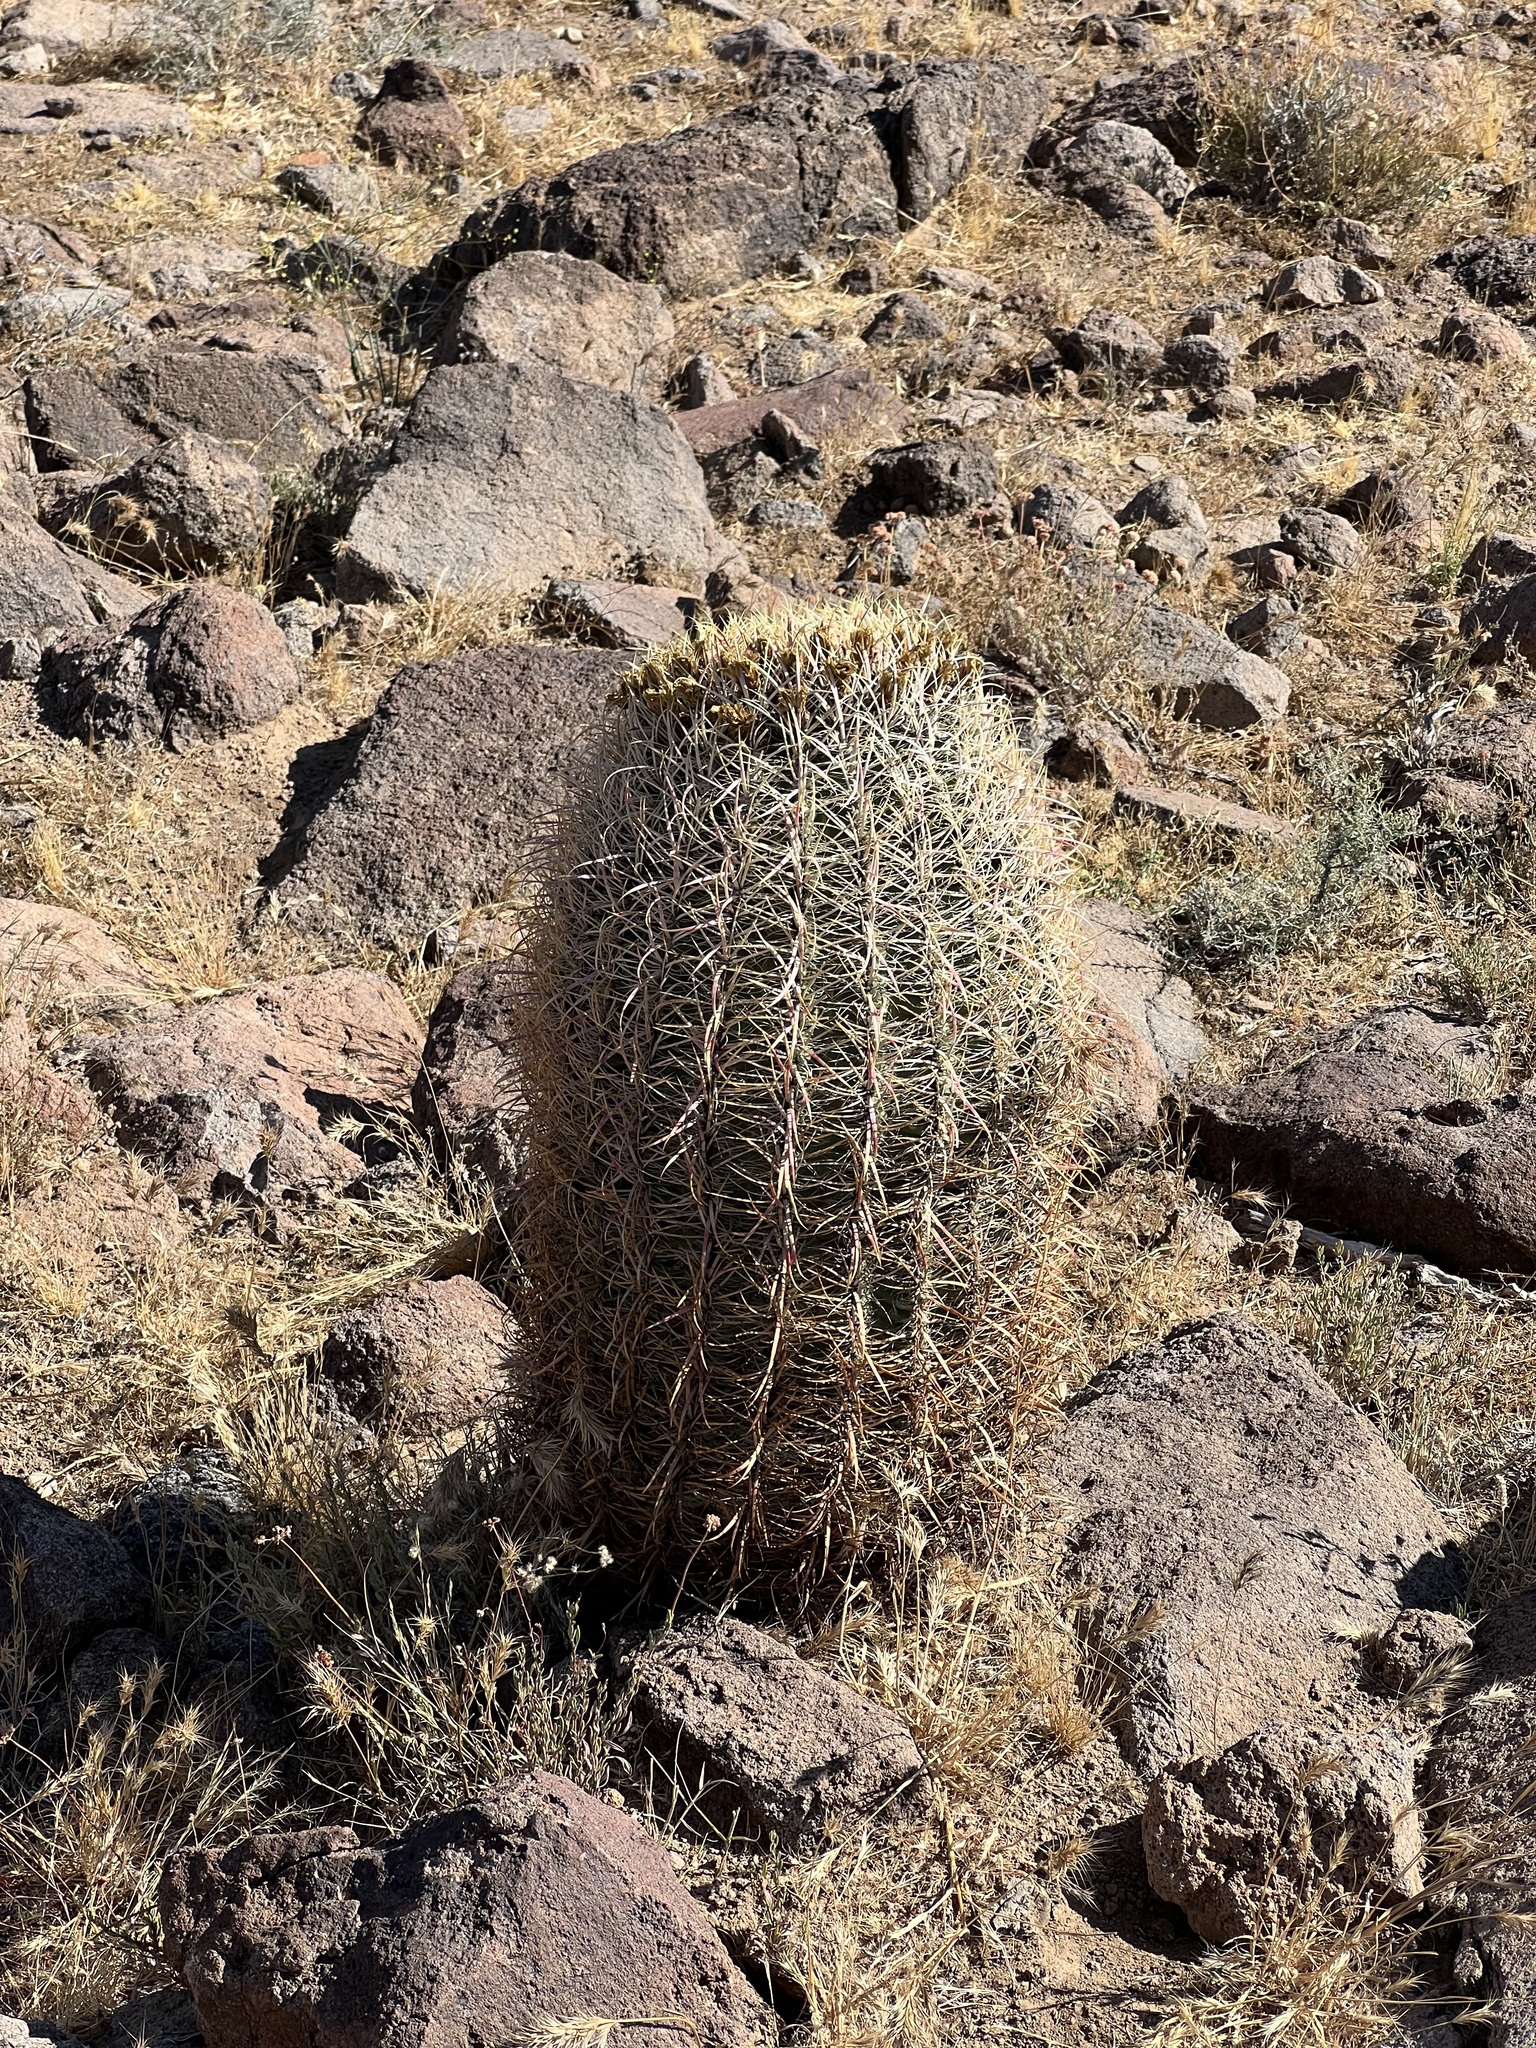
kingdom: Plantae
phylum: Tracheophyta
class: Magnoliopsida
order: Caryophyllales
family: Cactaceae
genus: Ferocactus
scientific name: Ferocactus cylindraceus
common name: California barrel cactus
